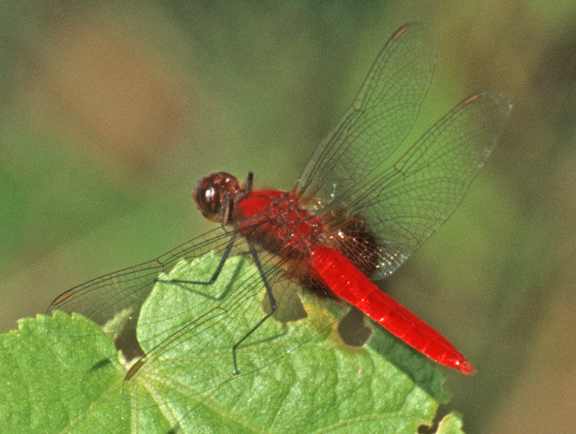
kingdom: Animalia
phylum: Arthropoda
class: Insecta
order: Odonata
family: Libellulidae
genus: Planiplax
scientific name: Planiplax machadoi
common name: Mantled spiderlegs
